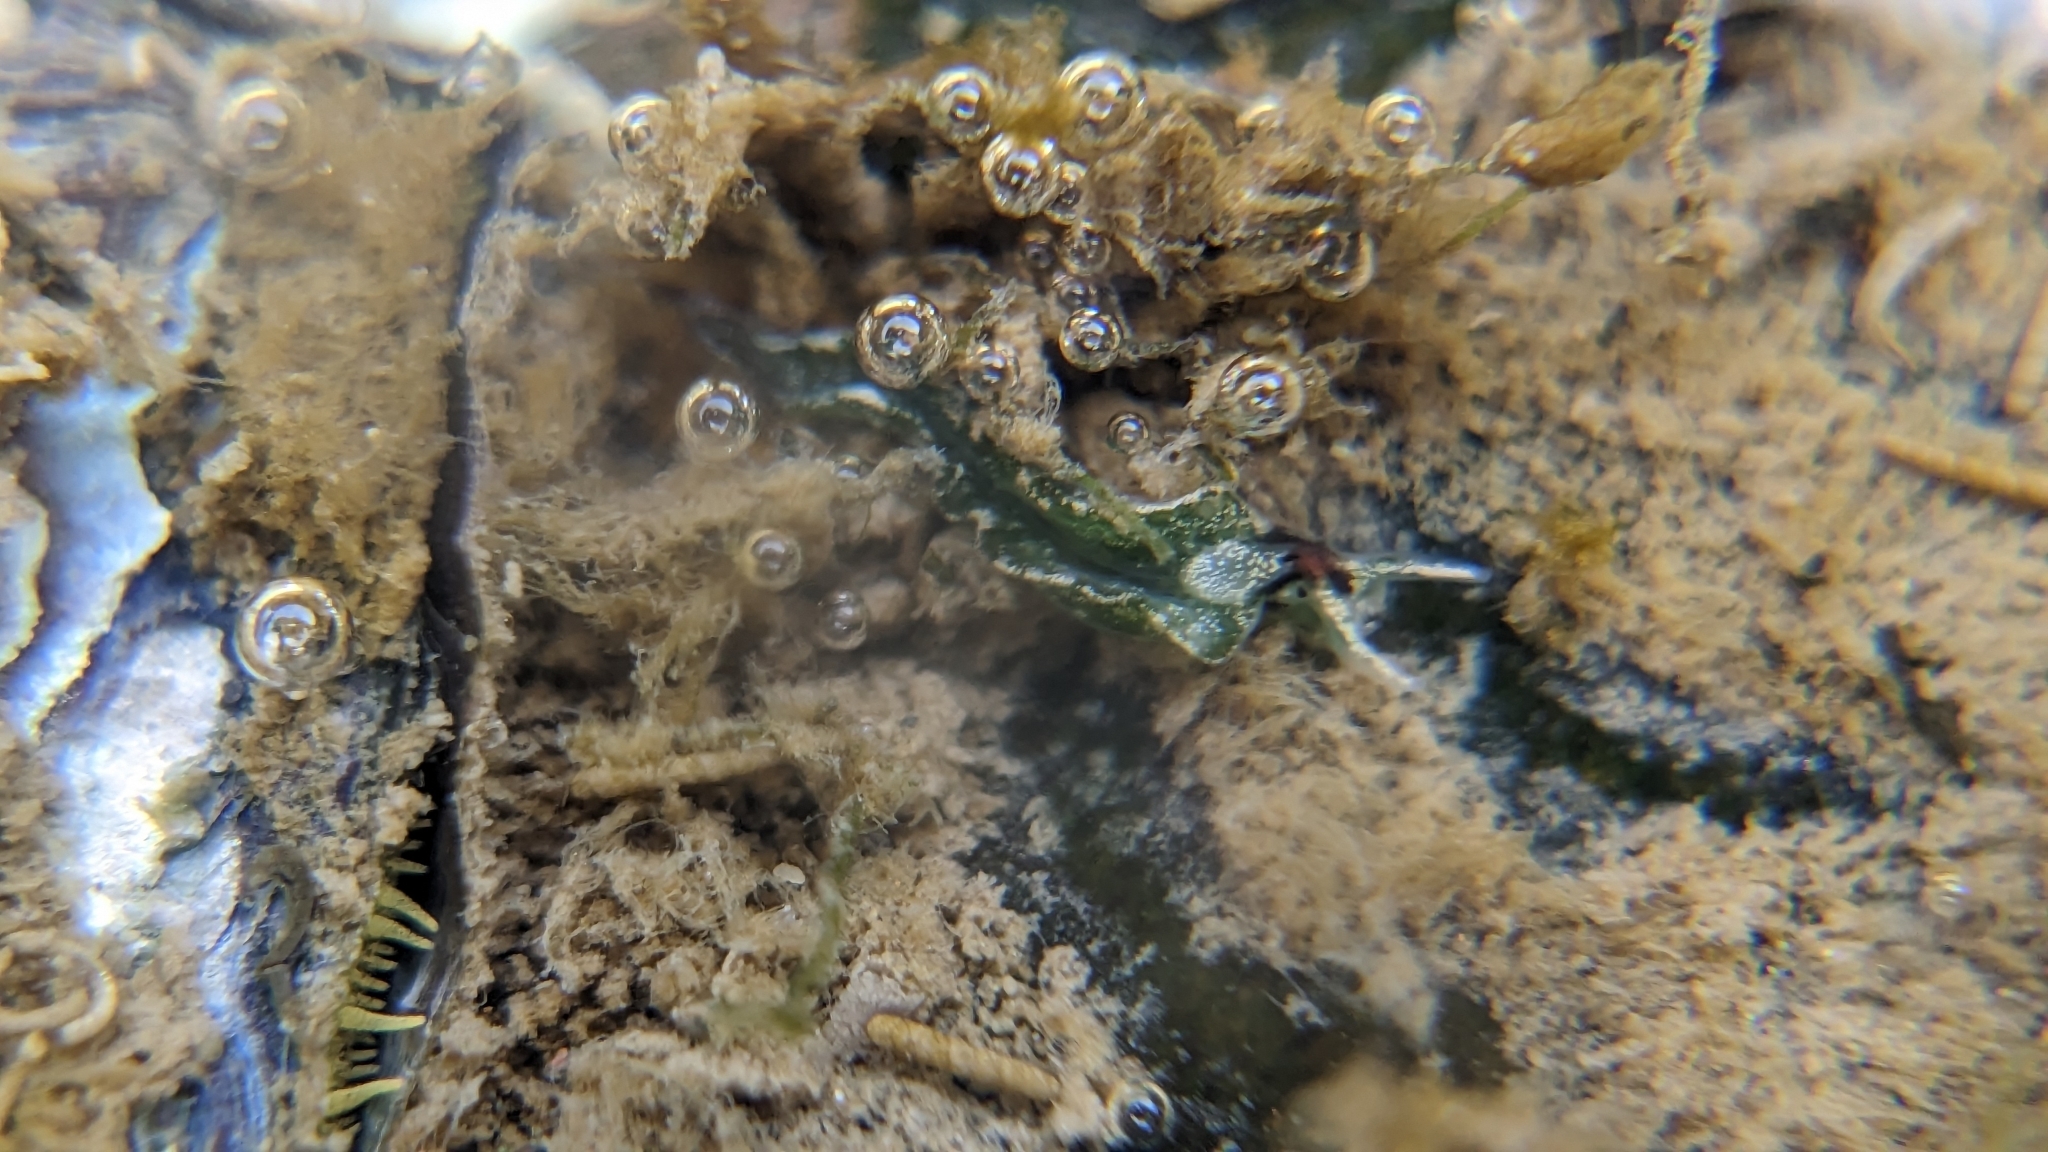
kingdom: Animalia
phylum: Mollusca
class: Gastropoda
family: Plakobranchidae
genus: Elysia
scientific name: Elysia hirasei
